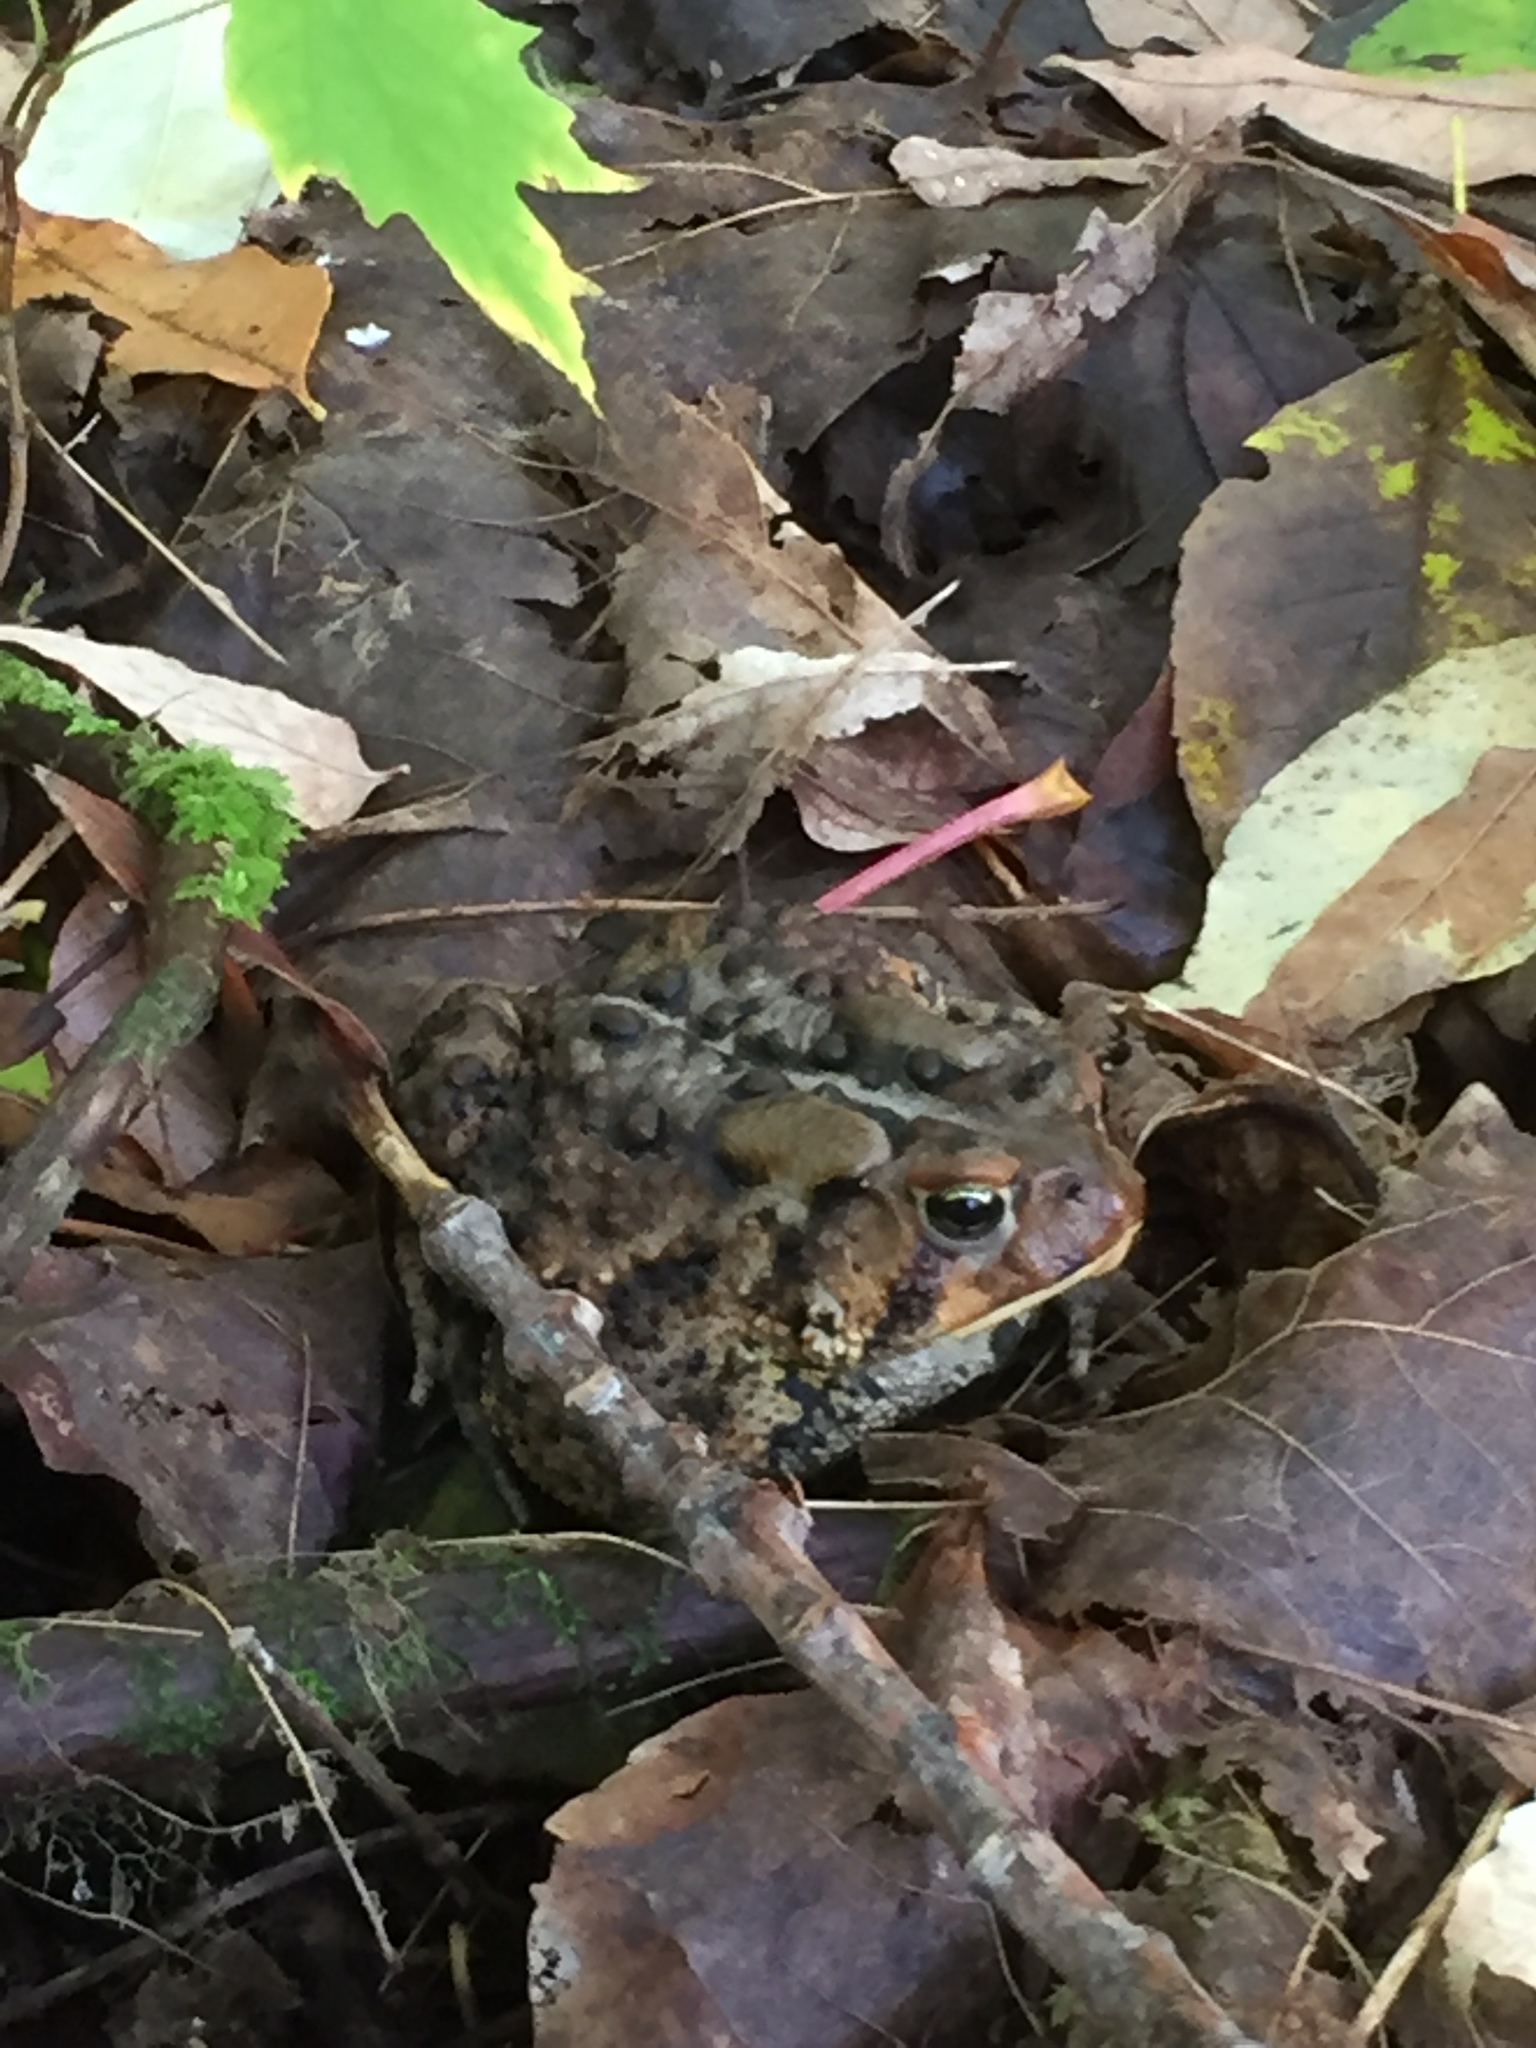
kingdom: Animalia
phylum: Chordata
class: Amphibia
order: Anura
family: Bufonidae
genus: Anaxyrus
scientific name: Anaxyrus americanus
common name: American toad
